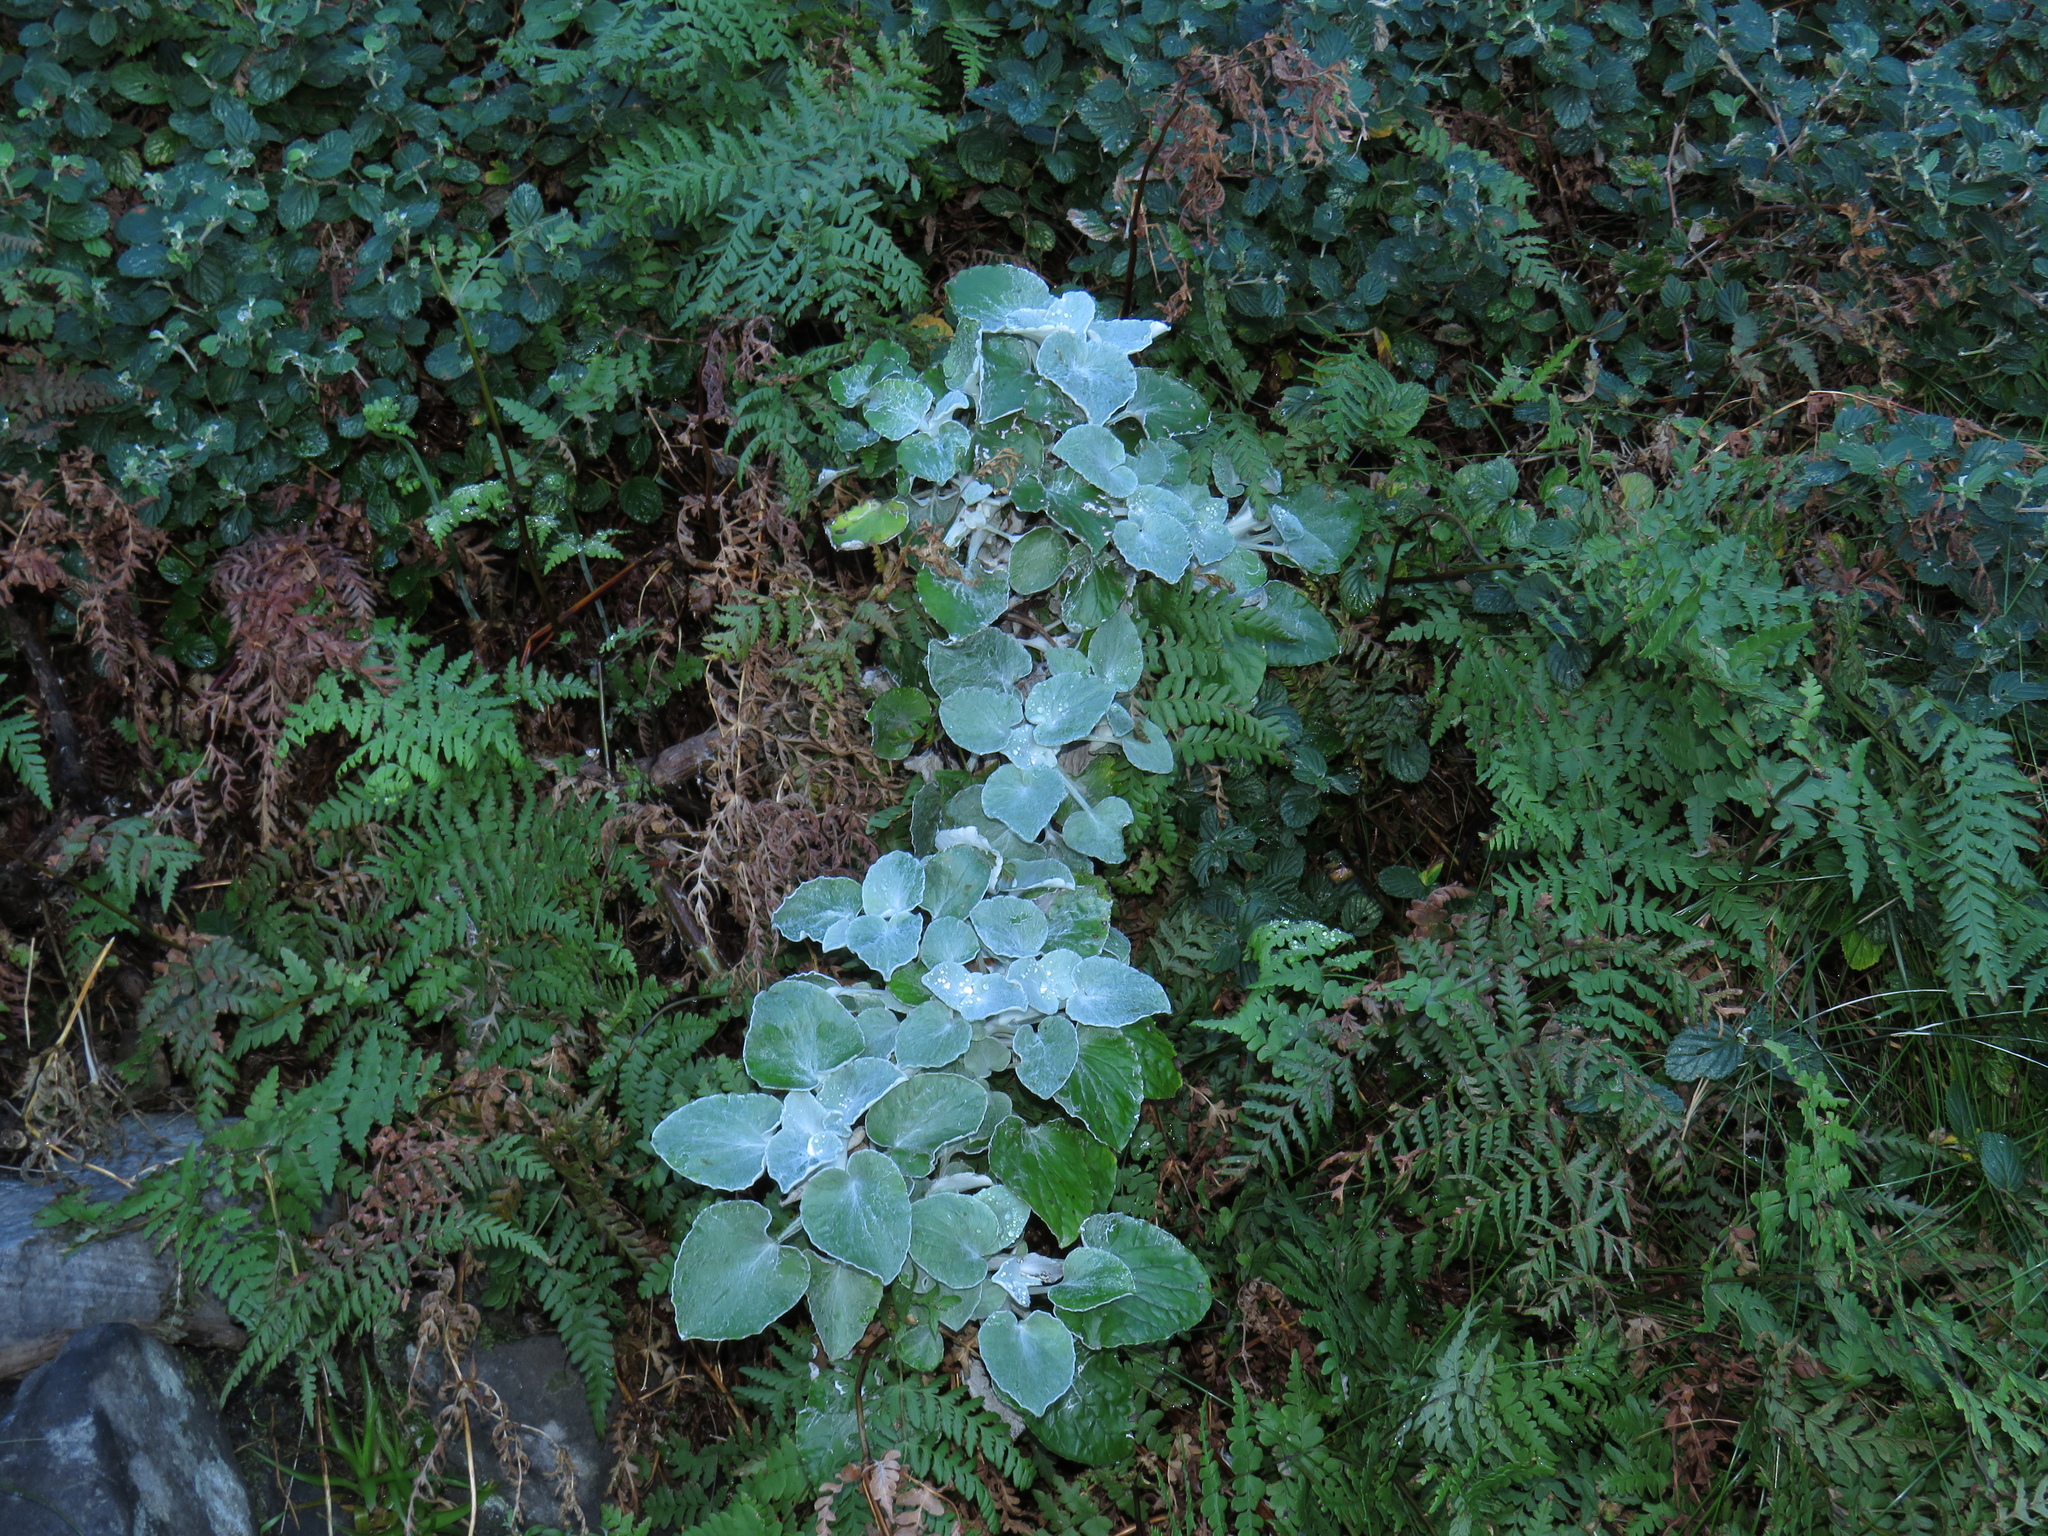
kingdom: Plantae
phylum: Tracheophyta
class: Magnoliopsida
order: Asterales
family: Asteraceae
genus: Senecio
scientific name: Senecio verbascifolius
